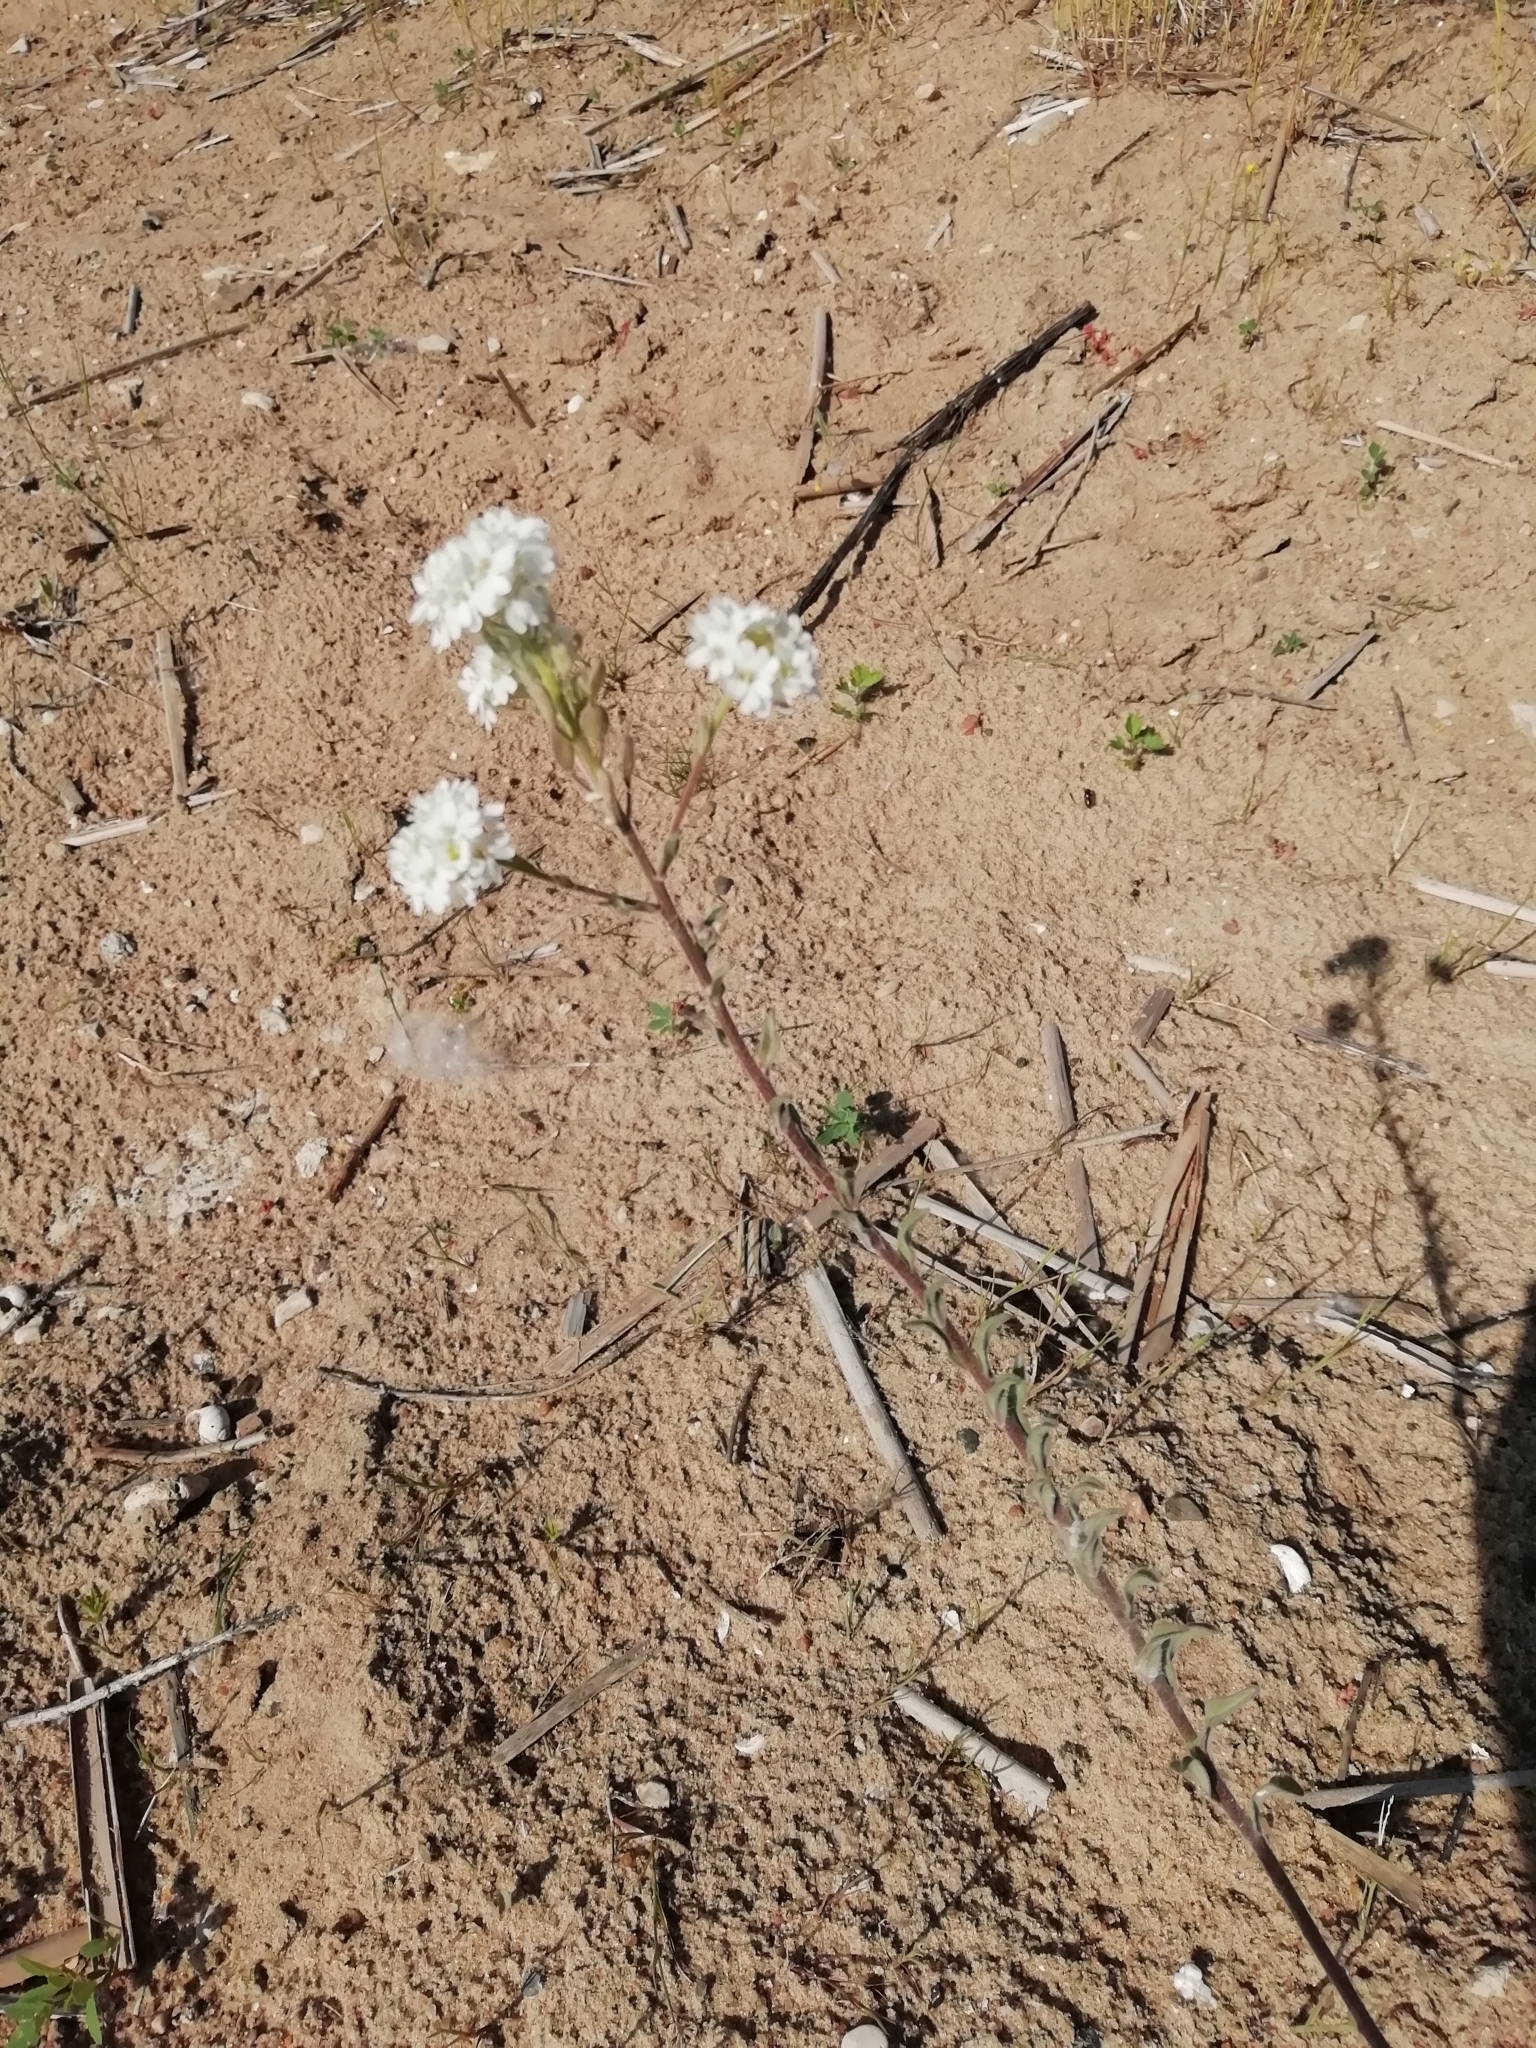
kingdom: Plantae
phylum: Tracheophyta
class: Magnoliopsida
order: Brassicales
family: Brassicaceae
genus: Berteroa
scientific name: Berteroa incana
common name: Hoary alison
